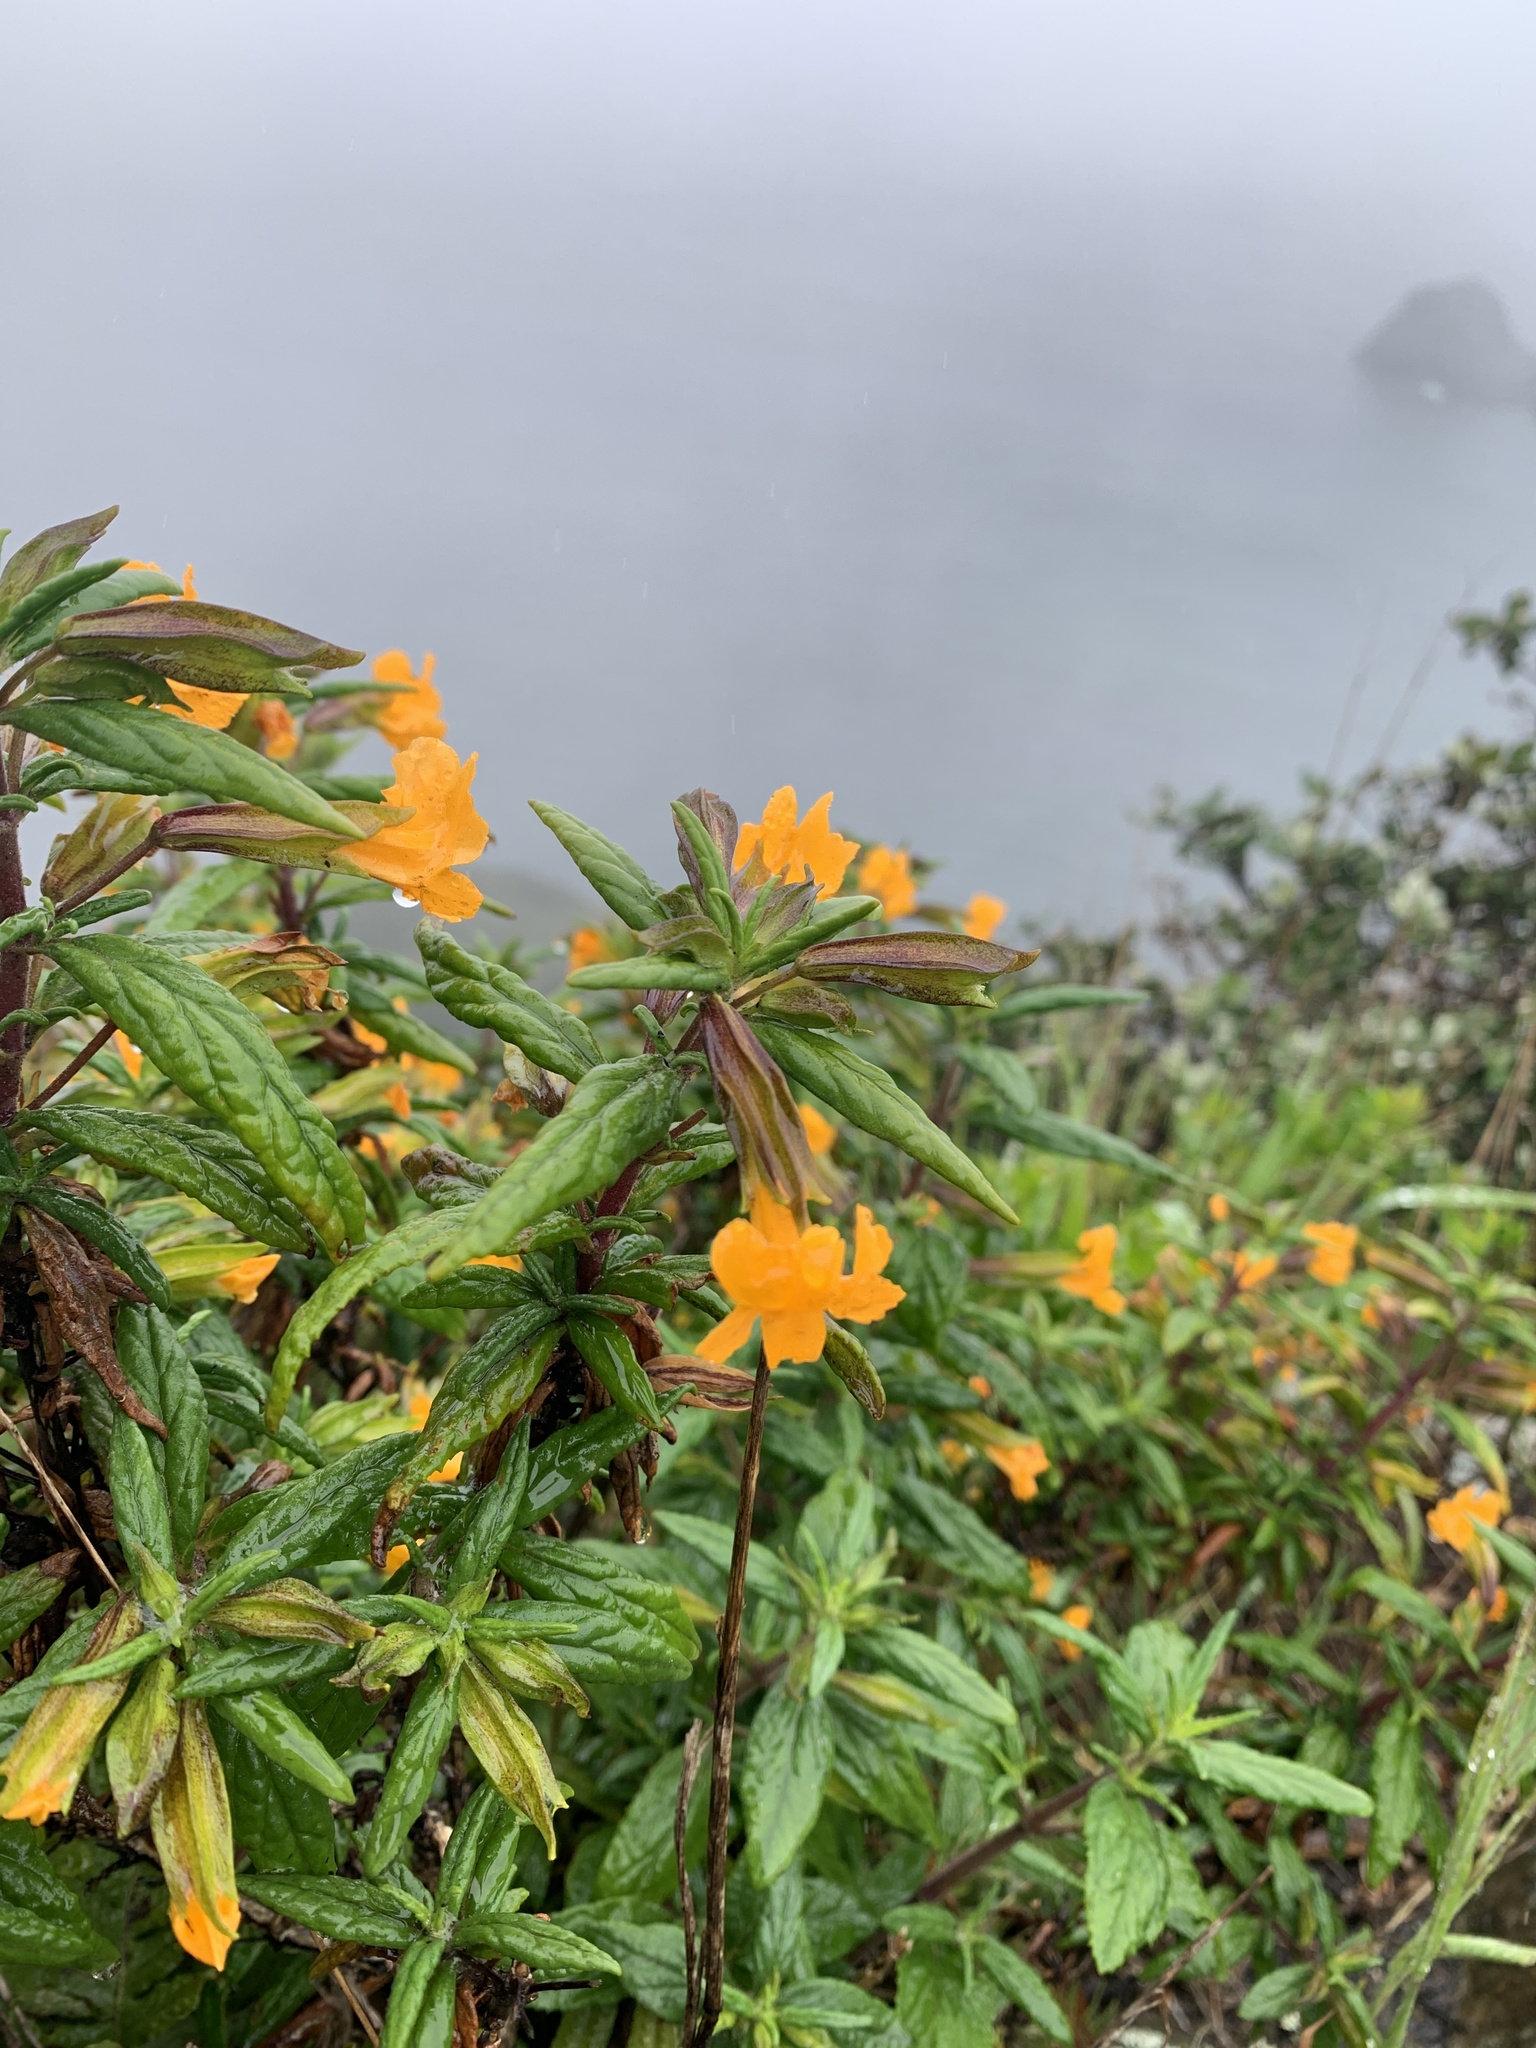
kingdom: Plantae
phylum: Tracheophyta
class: Magnoliopsida
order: Lamiales
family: Phrymaceae
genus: Diplacus
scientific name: Diplacus aurantiacus
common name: Bush monkey-flower
